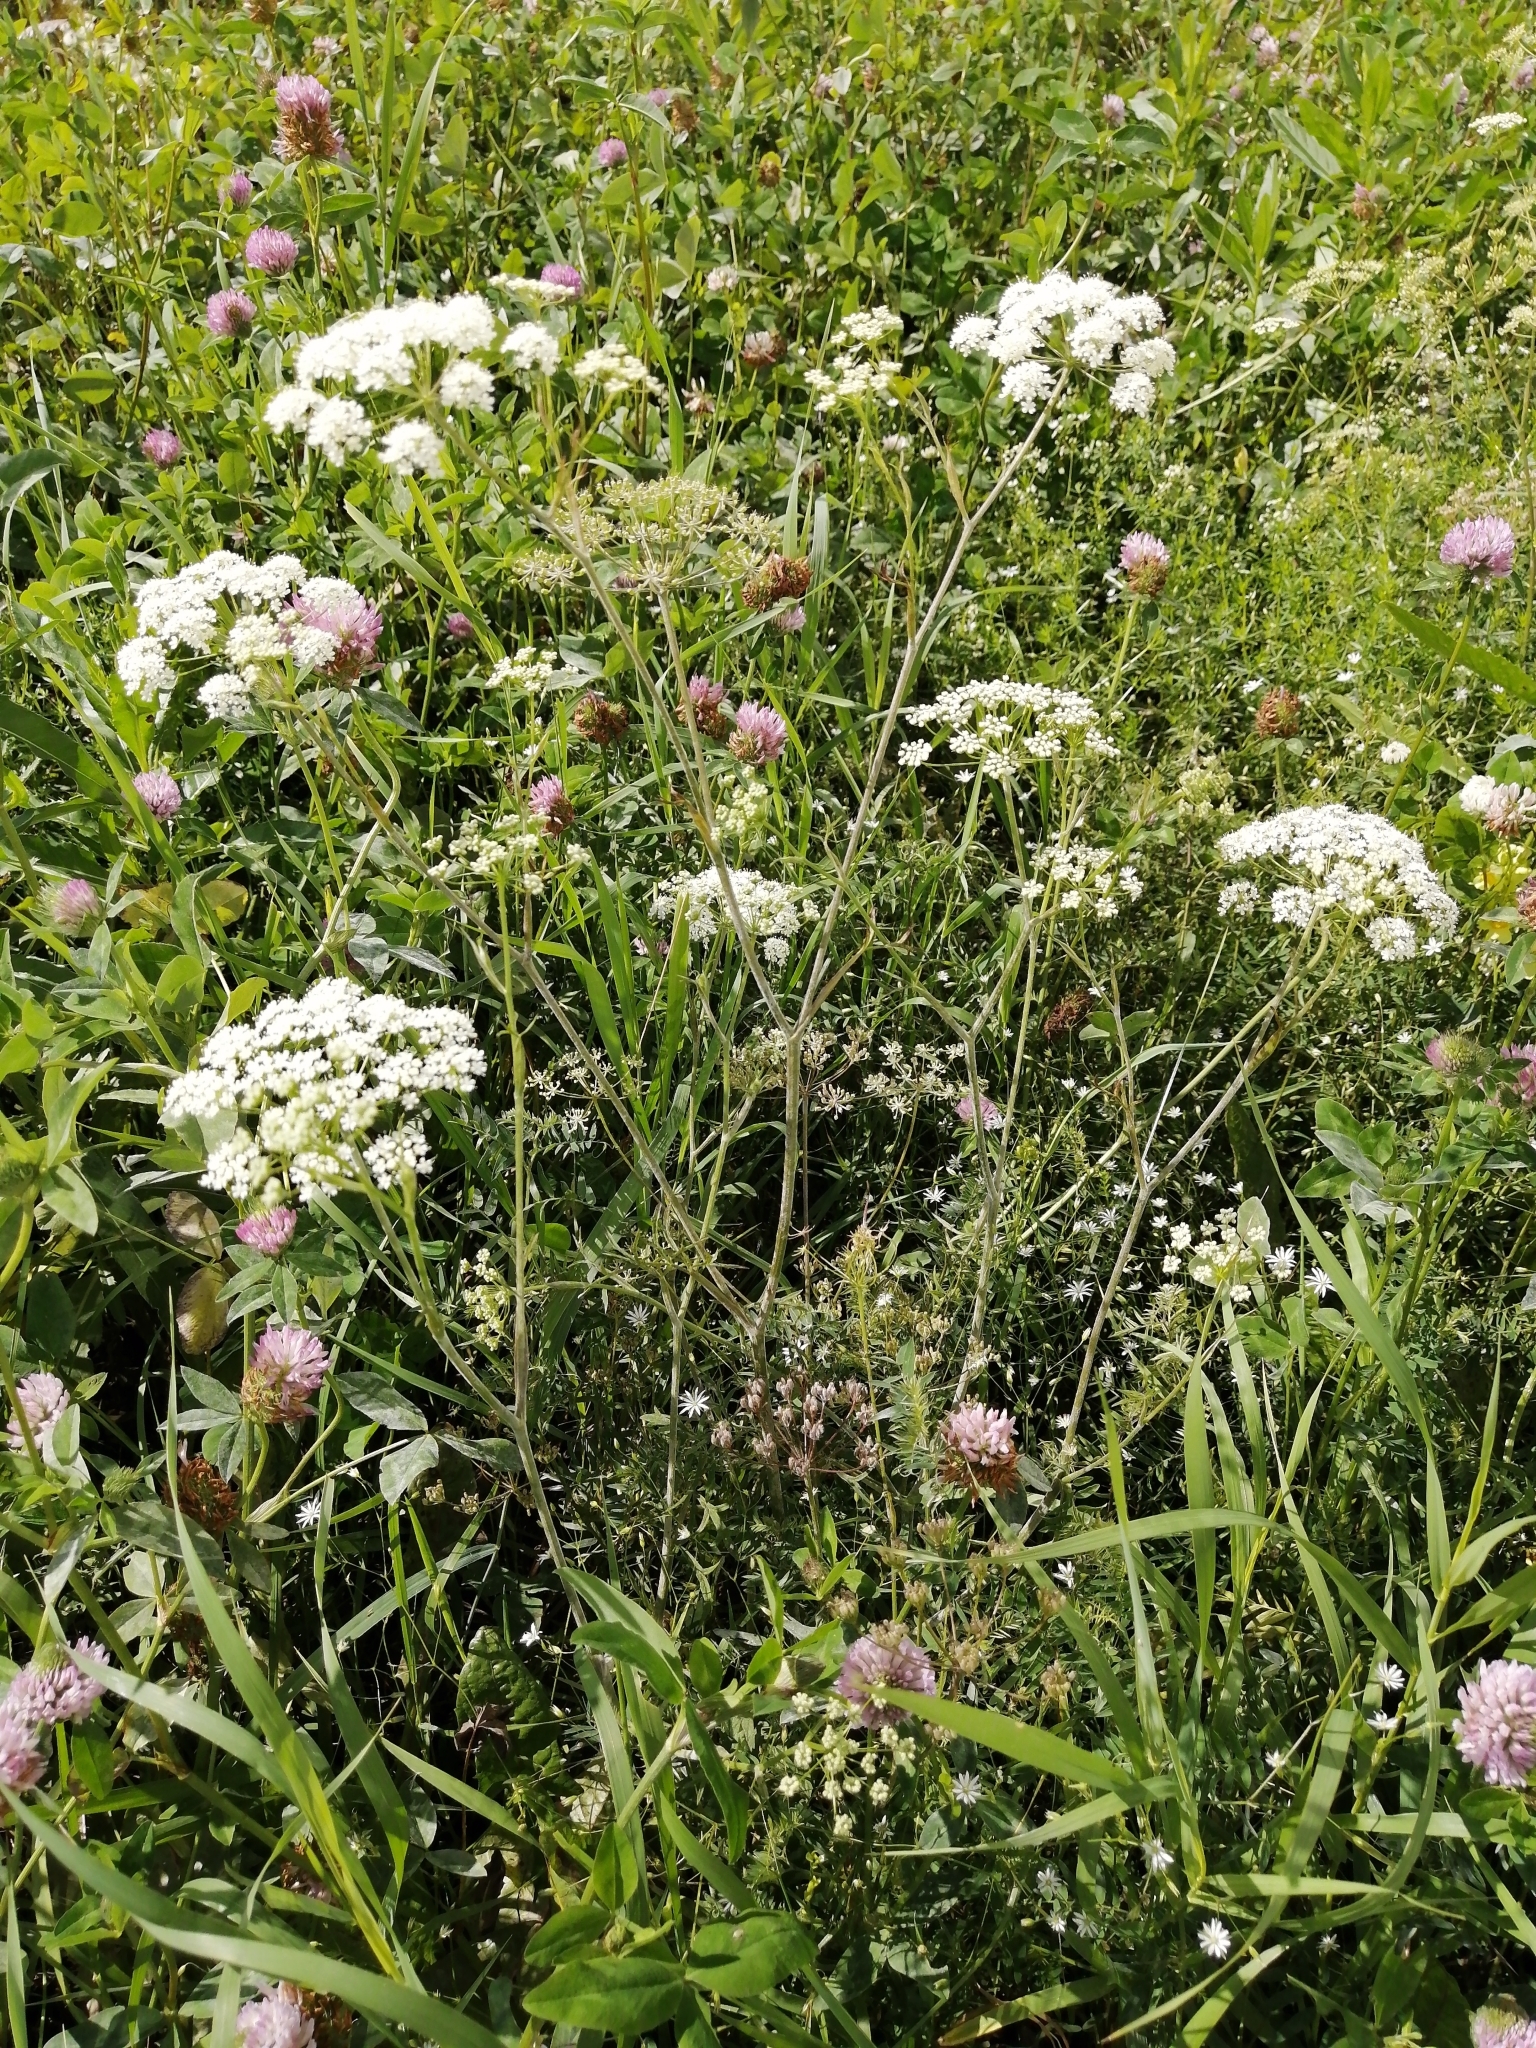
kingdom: Plantae
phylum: Tracheophyta
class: Magnoliopsida
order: Apiales
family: Apiaceae
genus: Pimpinella
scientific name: Pimpinella saxifraga
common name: Burnet-saxifrage
